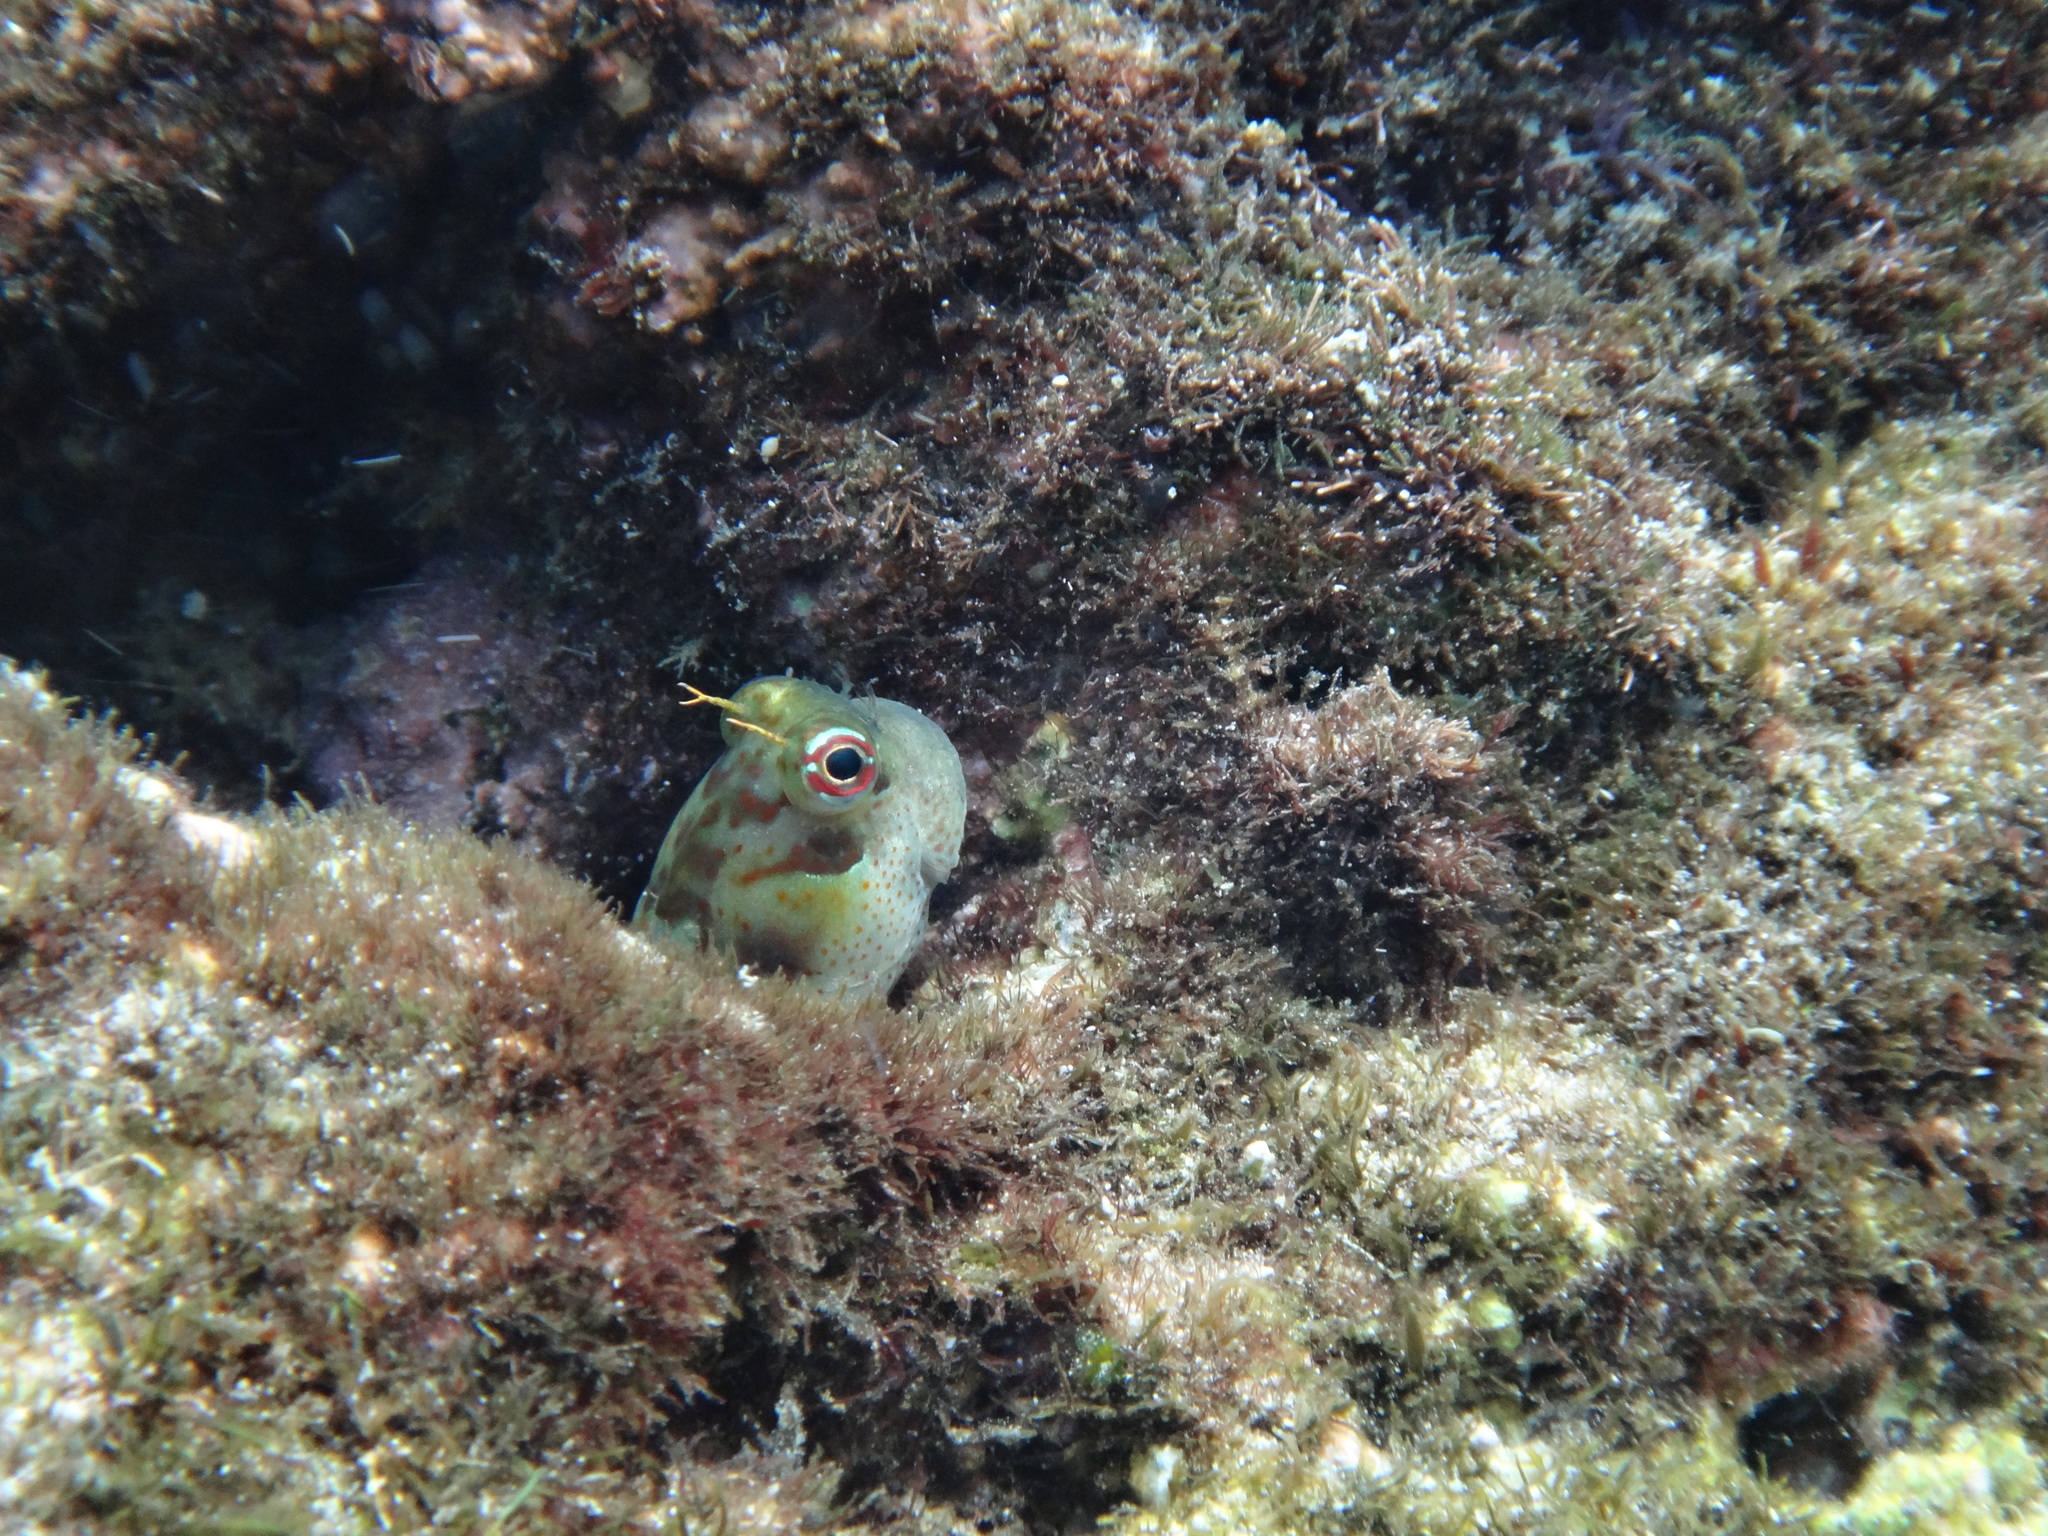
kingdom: Animalia
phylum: Chordata
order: Perciformes
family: Blenniidae
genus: Blenniella
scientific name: Blenniella chrysospilos
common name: Orange-spotted blenny
